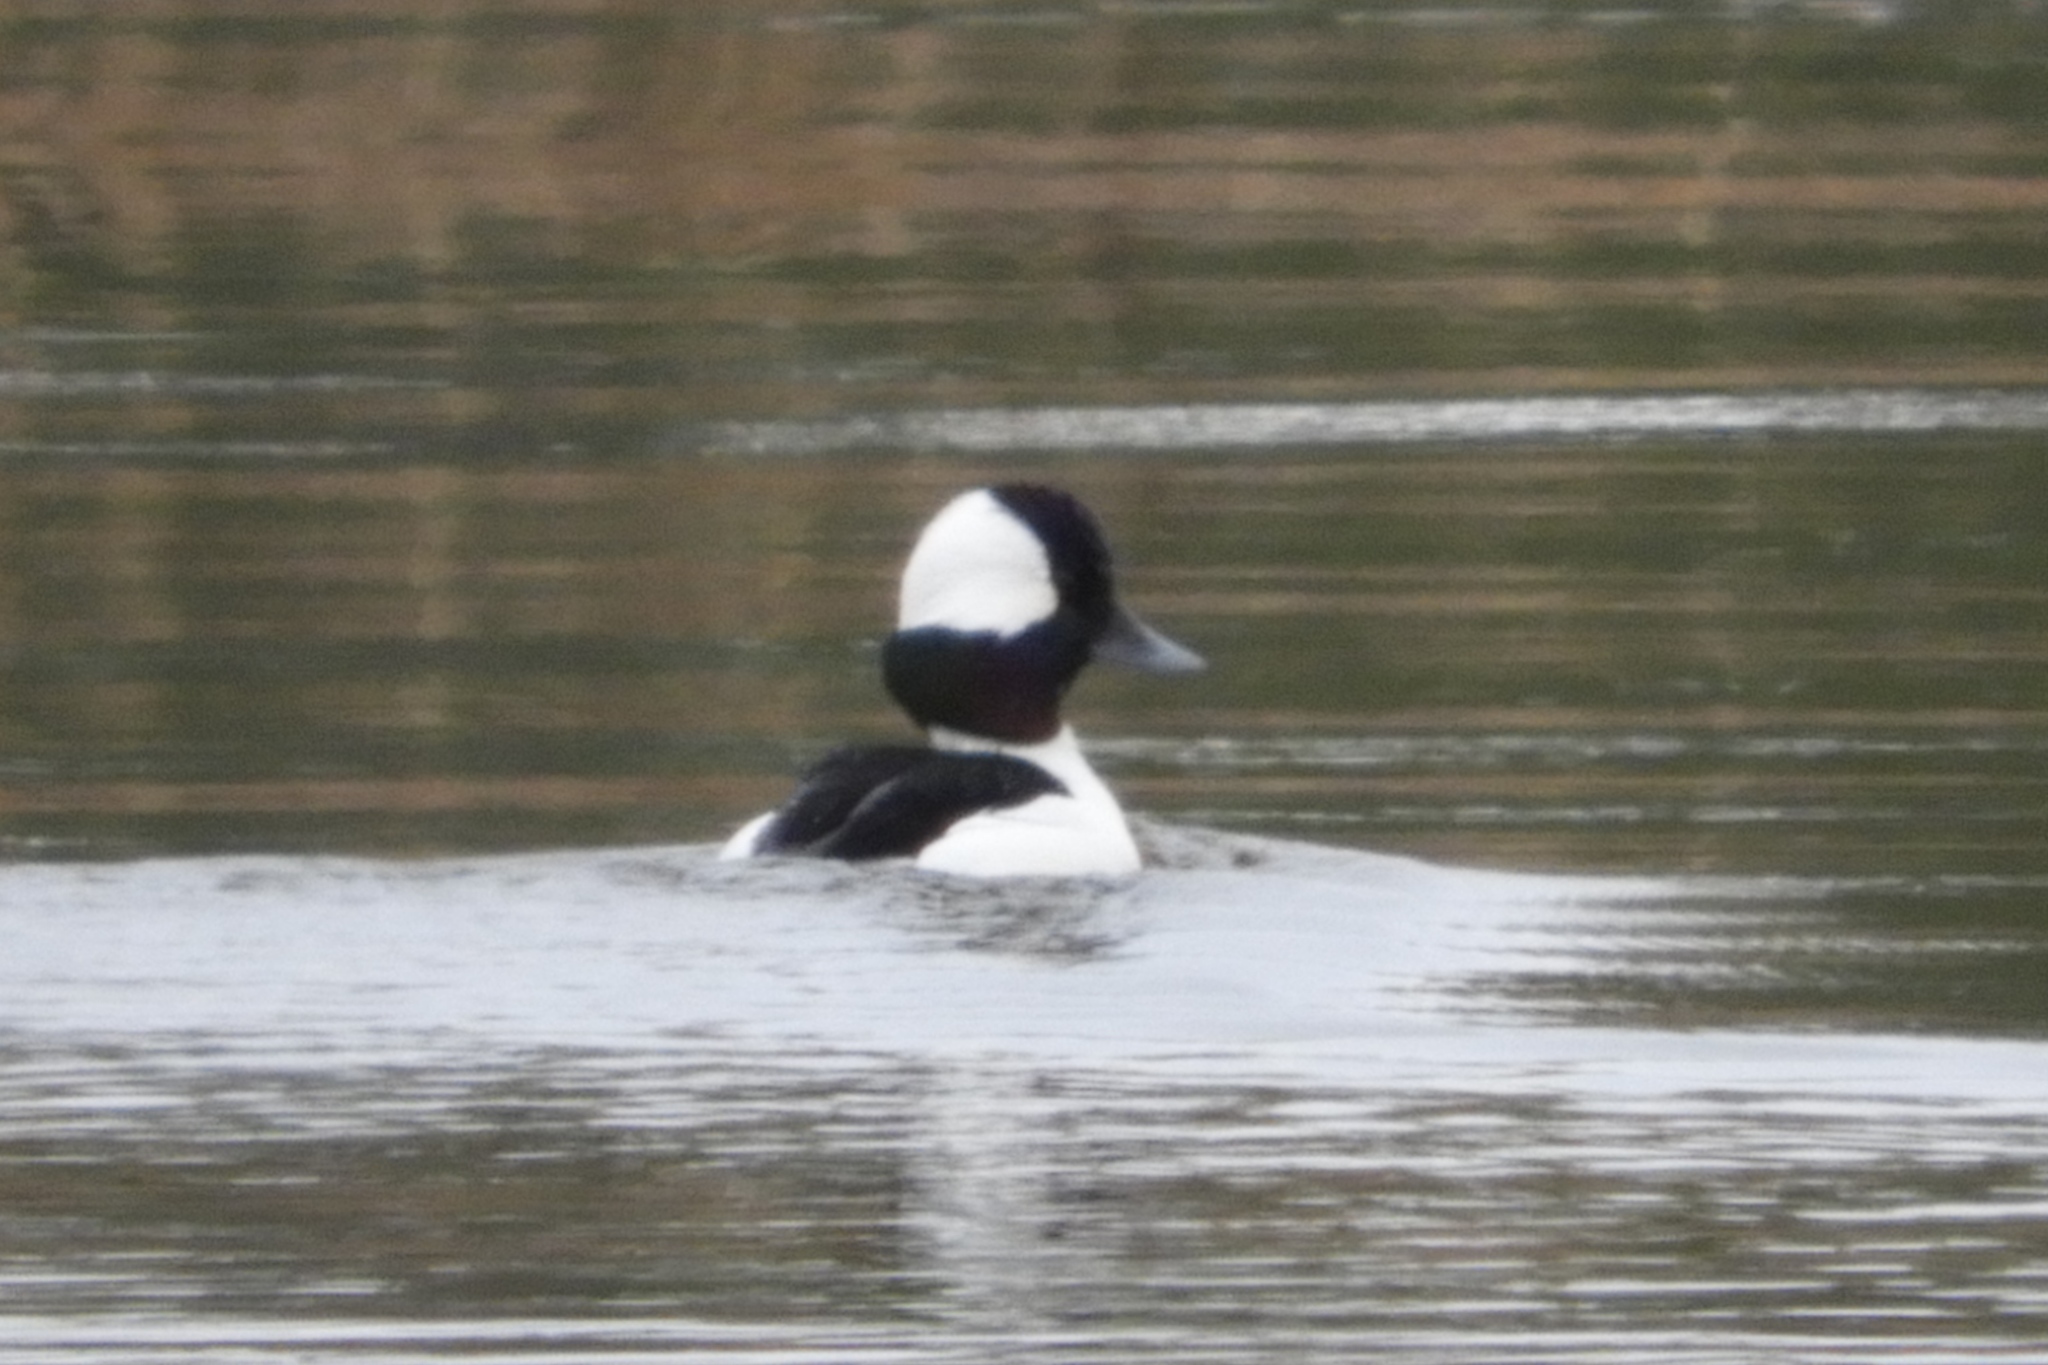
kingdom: Animalia
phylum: Chordata
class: Aves
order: Anseriformes
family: Anatidae
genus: Bucephala
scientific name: Bucephala albeola
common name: Bufflehead
